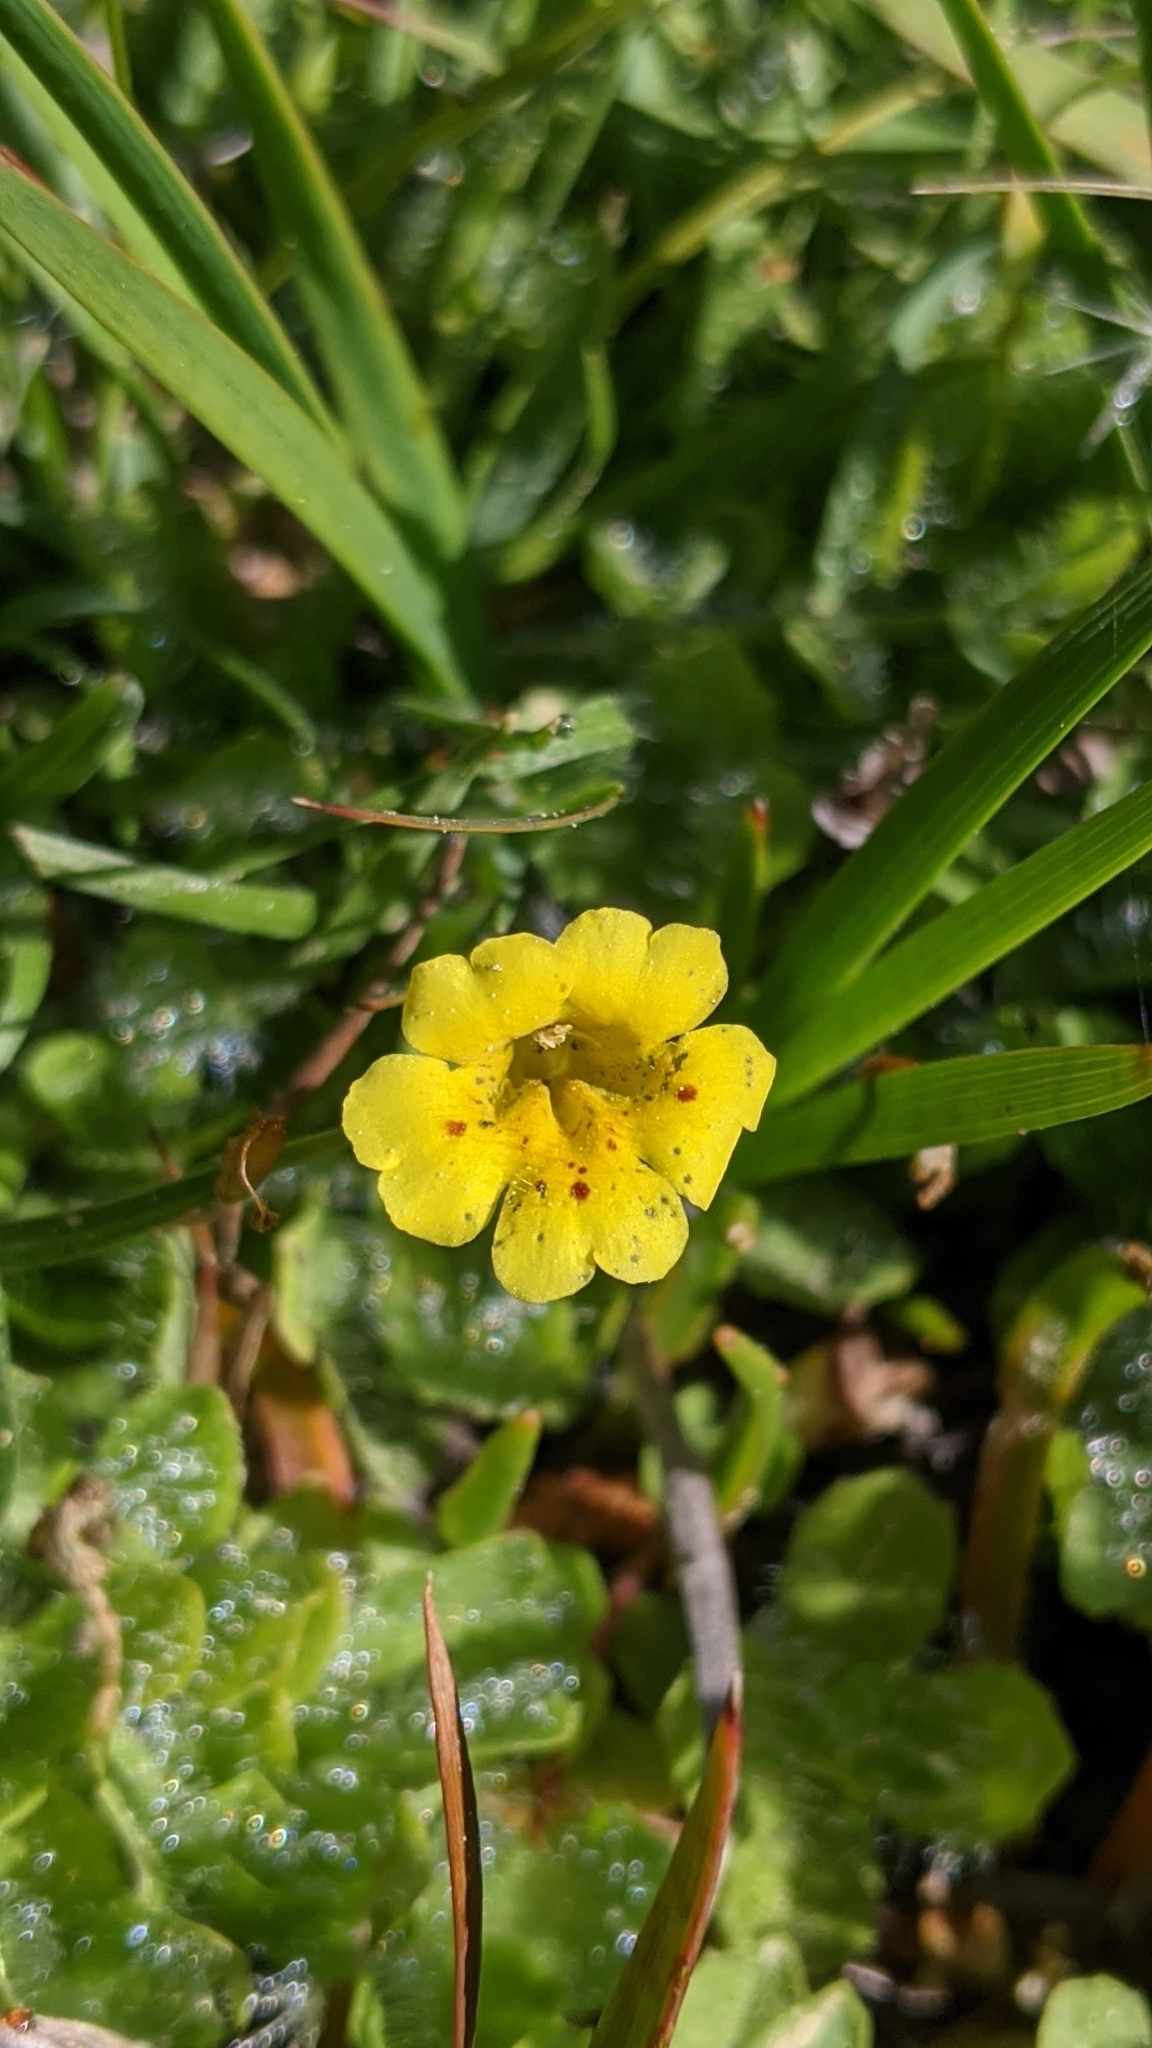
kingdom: Plantae
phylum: Tracheophyta
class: Magnoliopsida
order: Lamiales
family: Phrymaceae
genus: Erythranthe
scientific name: Erythranthe primuloides
